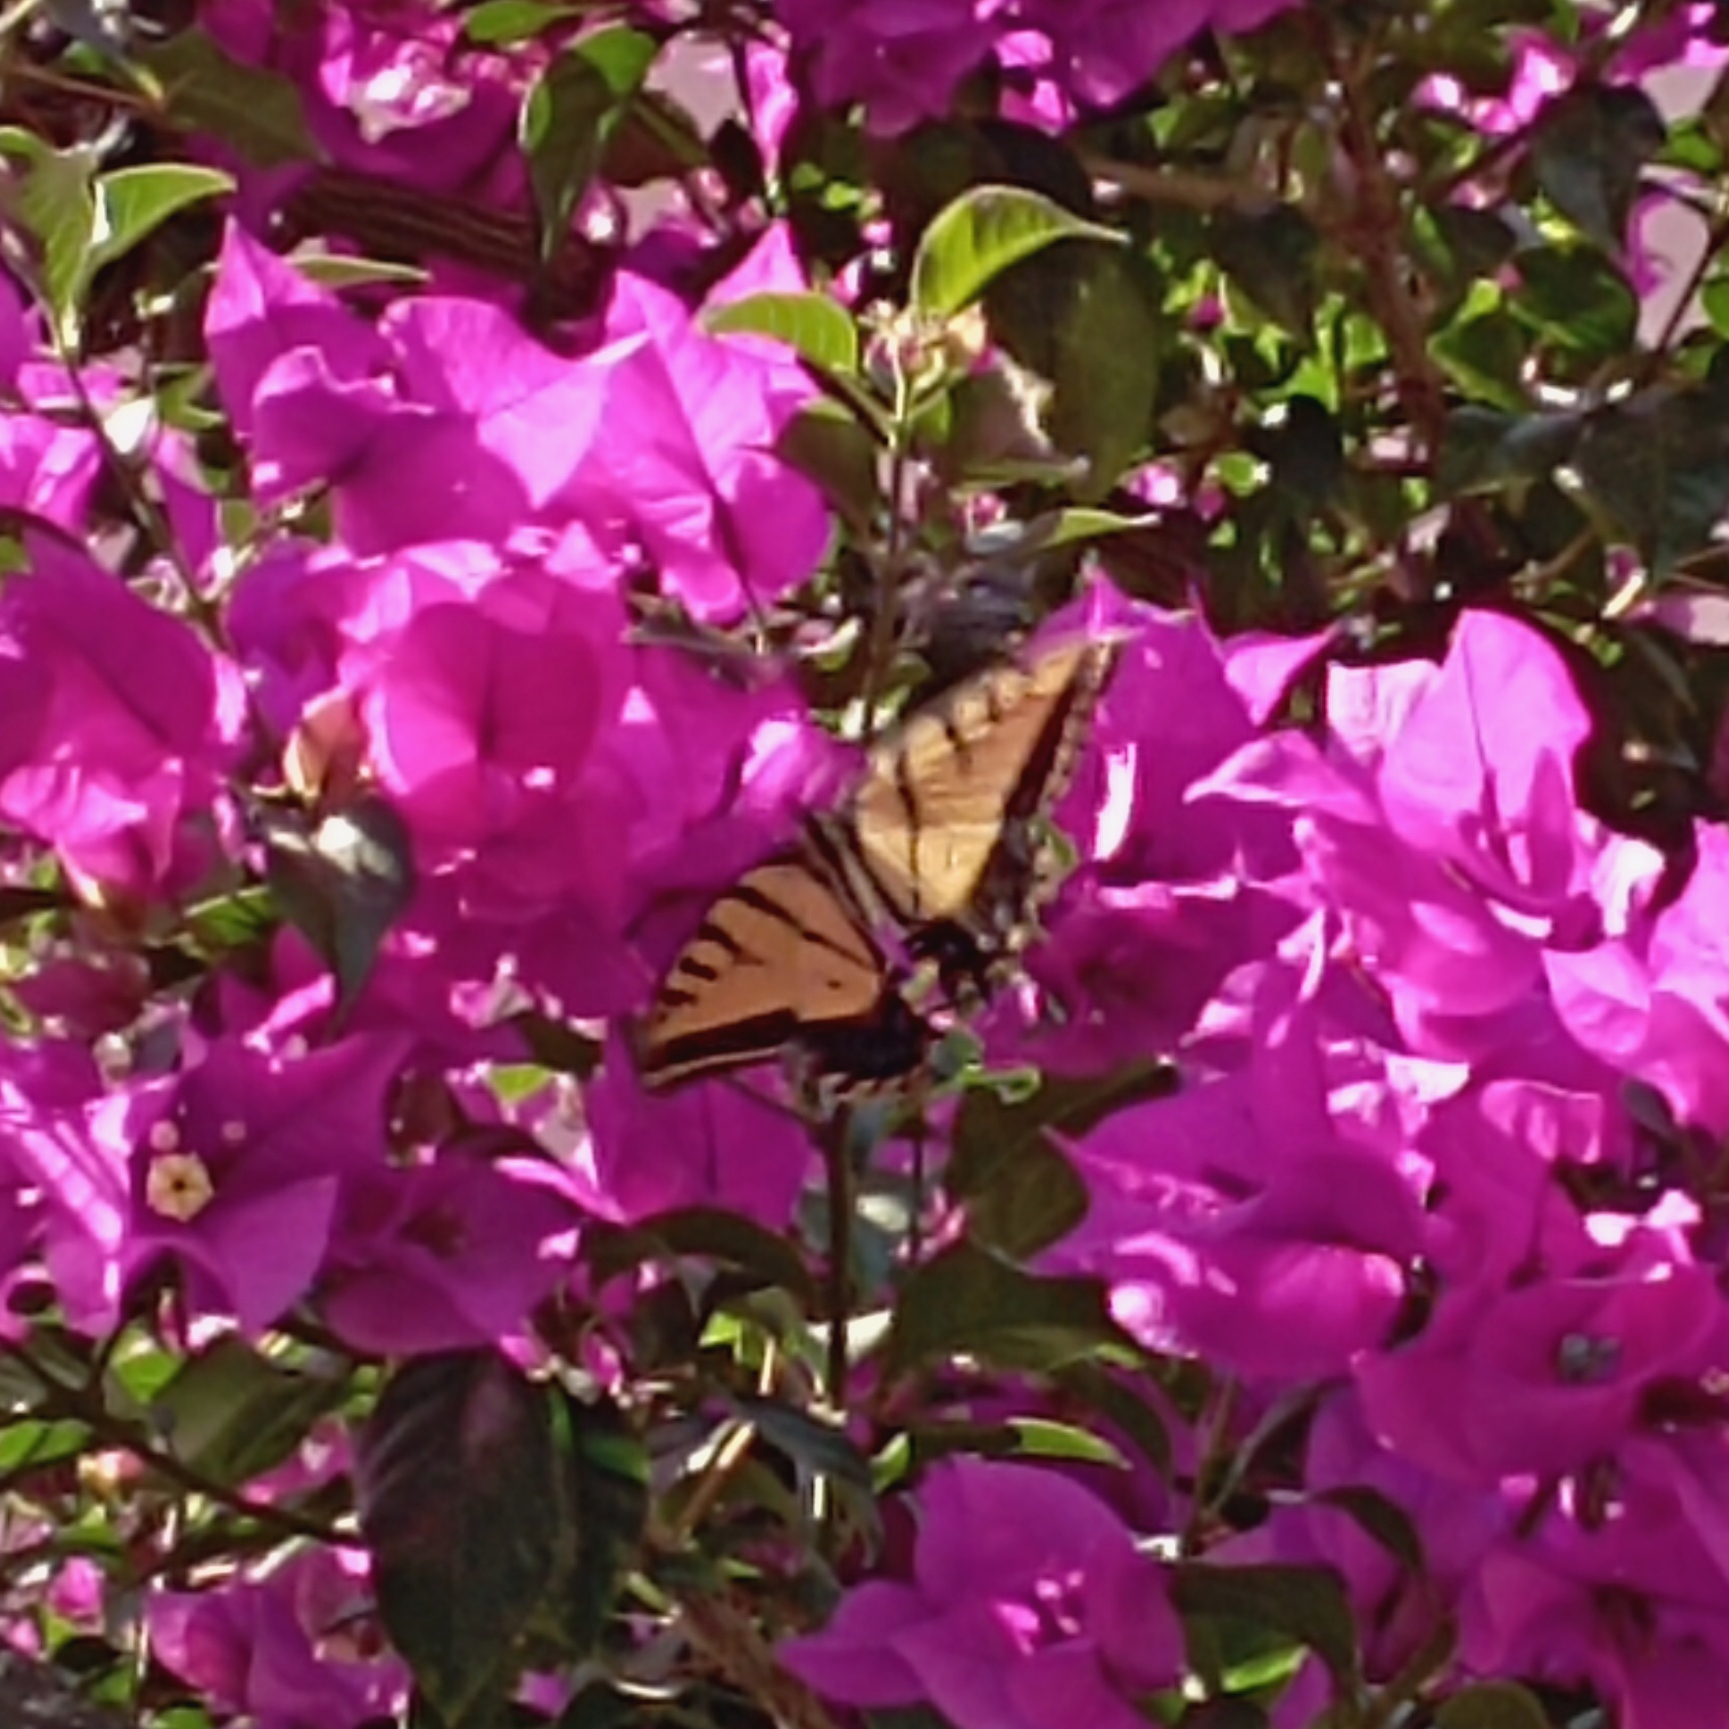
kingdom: Animalia
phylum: Arthropoda
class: Insecta
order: Lepidoptera
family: Papilionidae
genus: Papilio
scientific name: Papilio multicaudata
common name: Two-tailed tiger swallowtail
